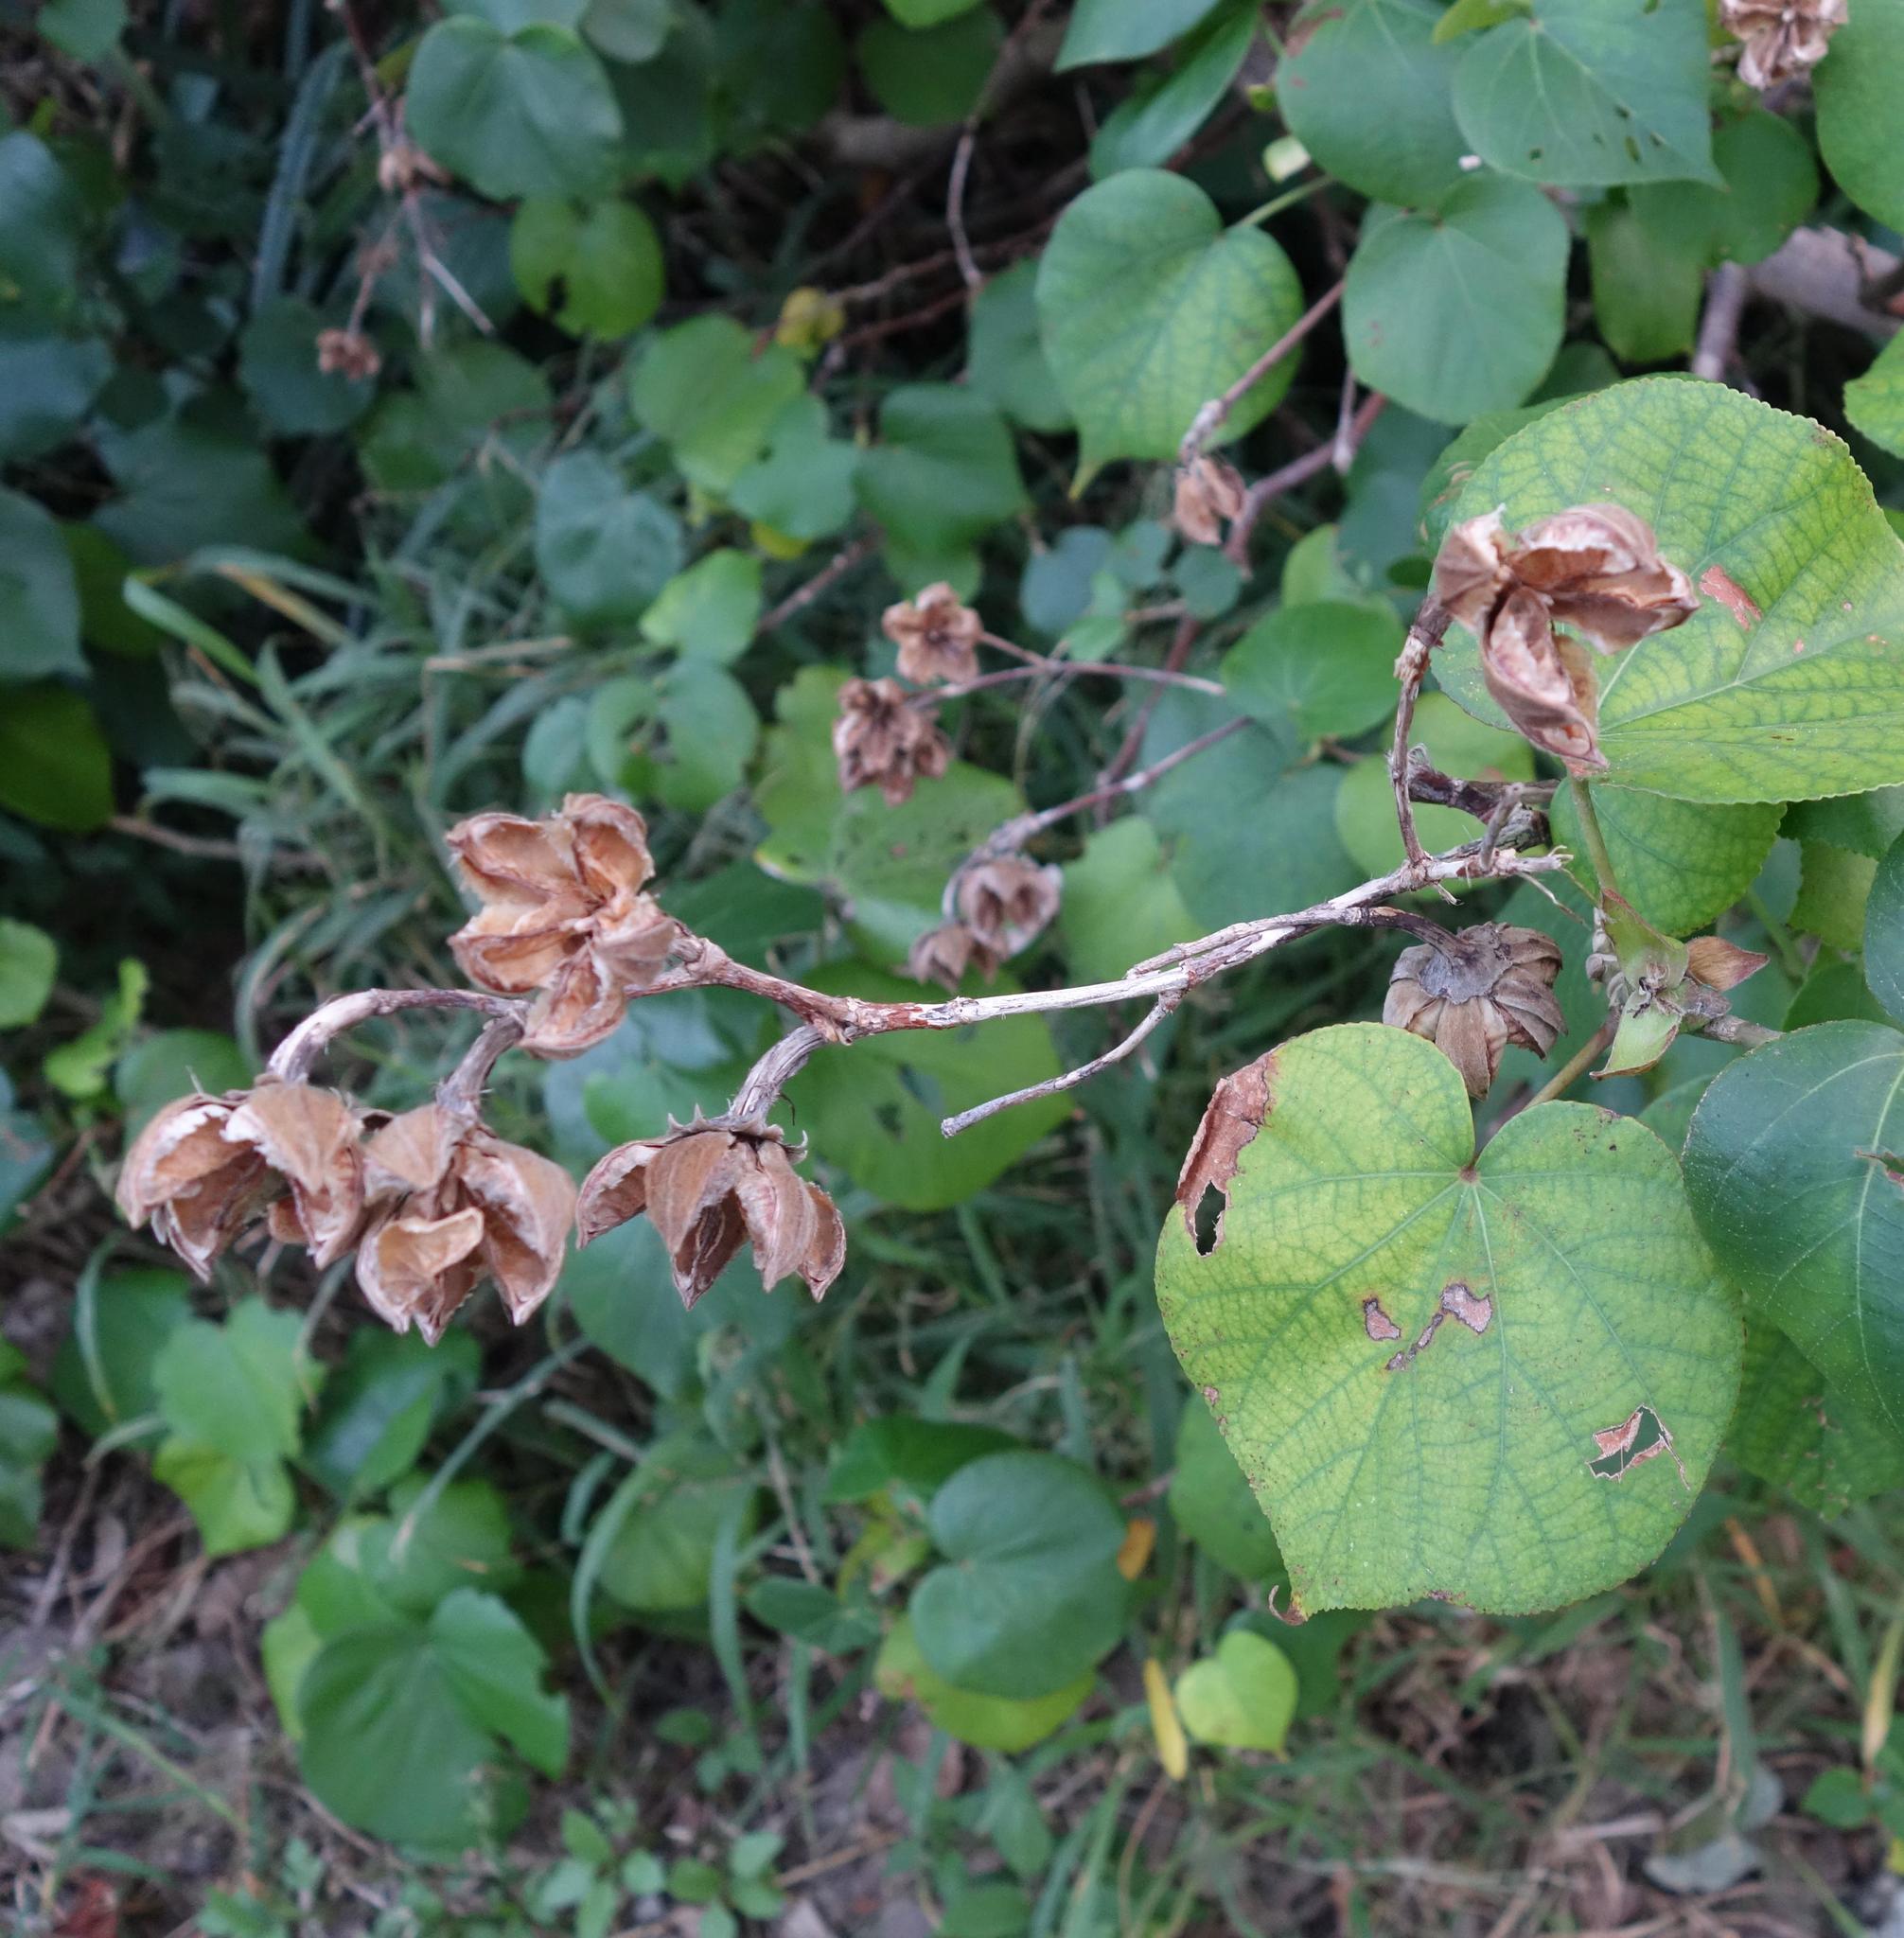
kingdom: Plantae
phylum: Tracheophyta
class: Magnoliopsida
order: Malvales
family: Malvaceae
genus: Talipariti
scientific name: Talipariti tiliaceum
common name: Sea hibiscus
